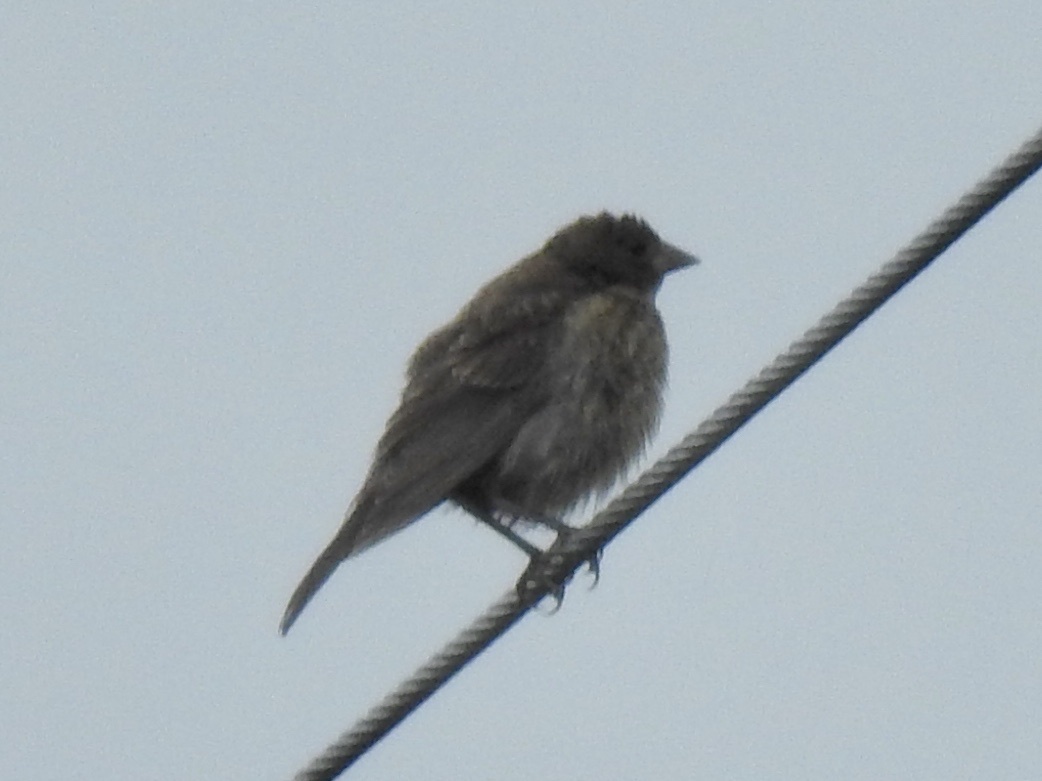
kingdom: Animalia
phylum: Chordata
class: Aves
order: Passeriformes
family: Icteridae
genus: Molothrus
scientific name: Molothrus ater
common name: Brown-headed cowbird
